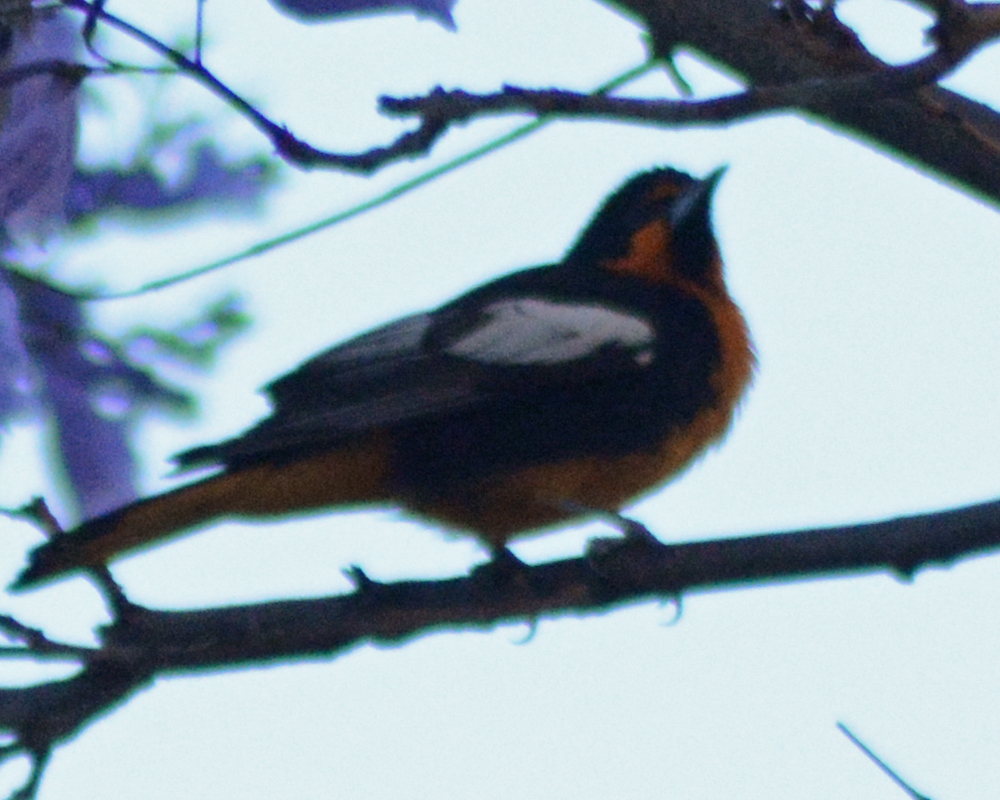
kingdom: Animalia
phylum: Chordata
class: Aves
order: Passeriformes
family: Icteridae
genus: Icterus
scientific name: Icterus abeillei
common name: Black-backed oriole
